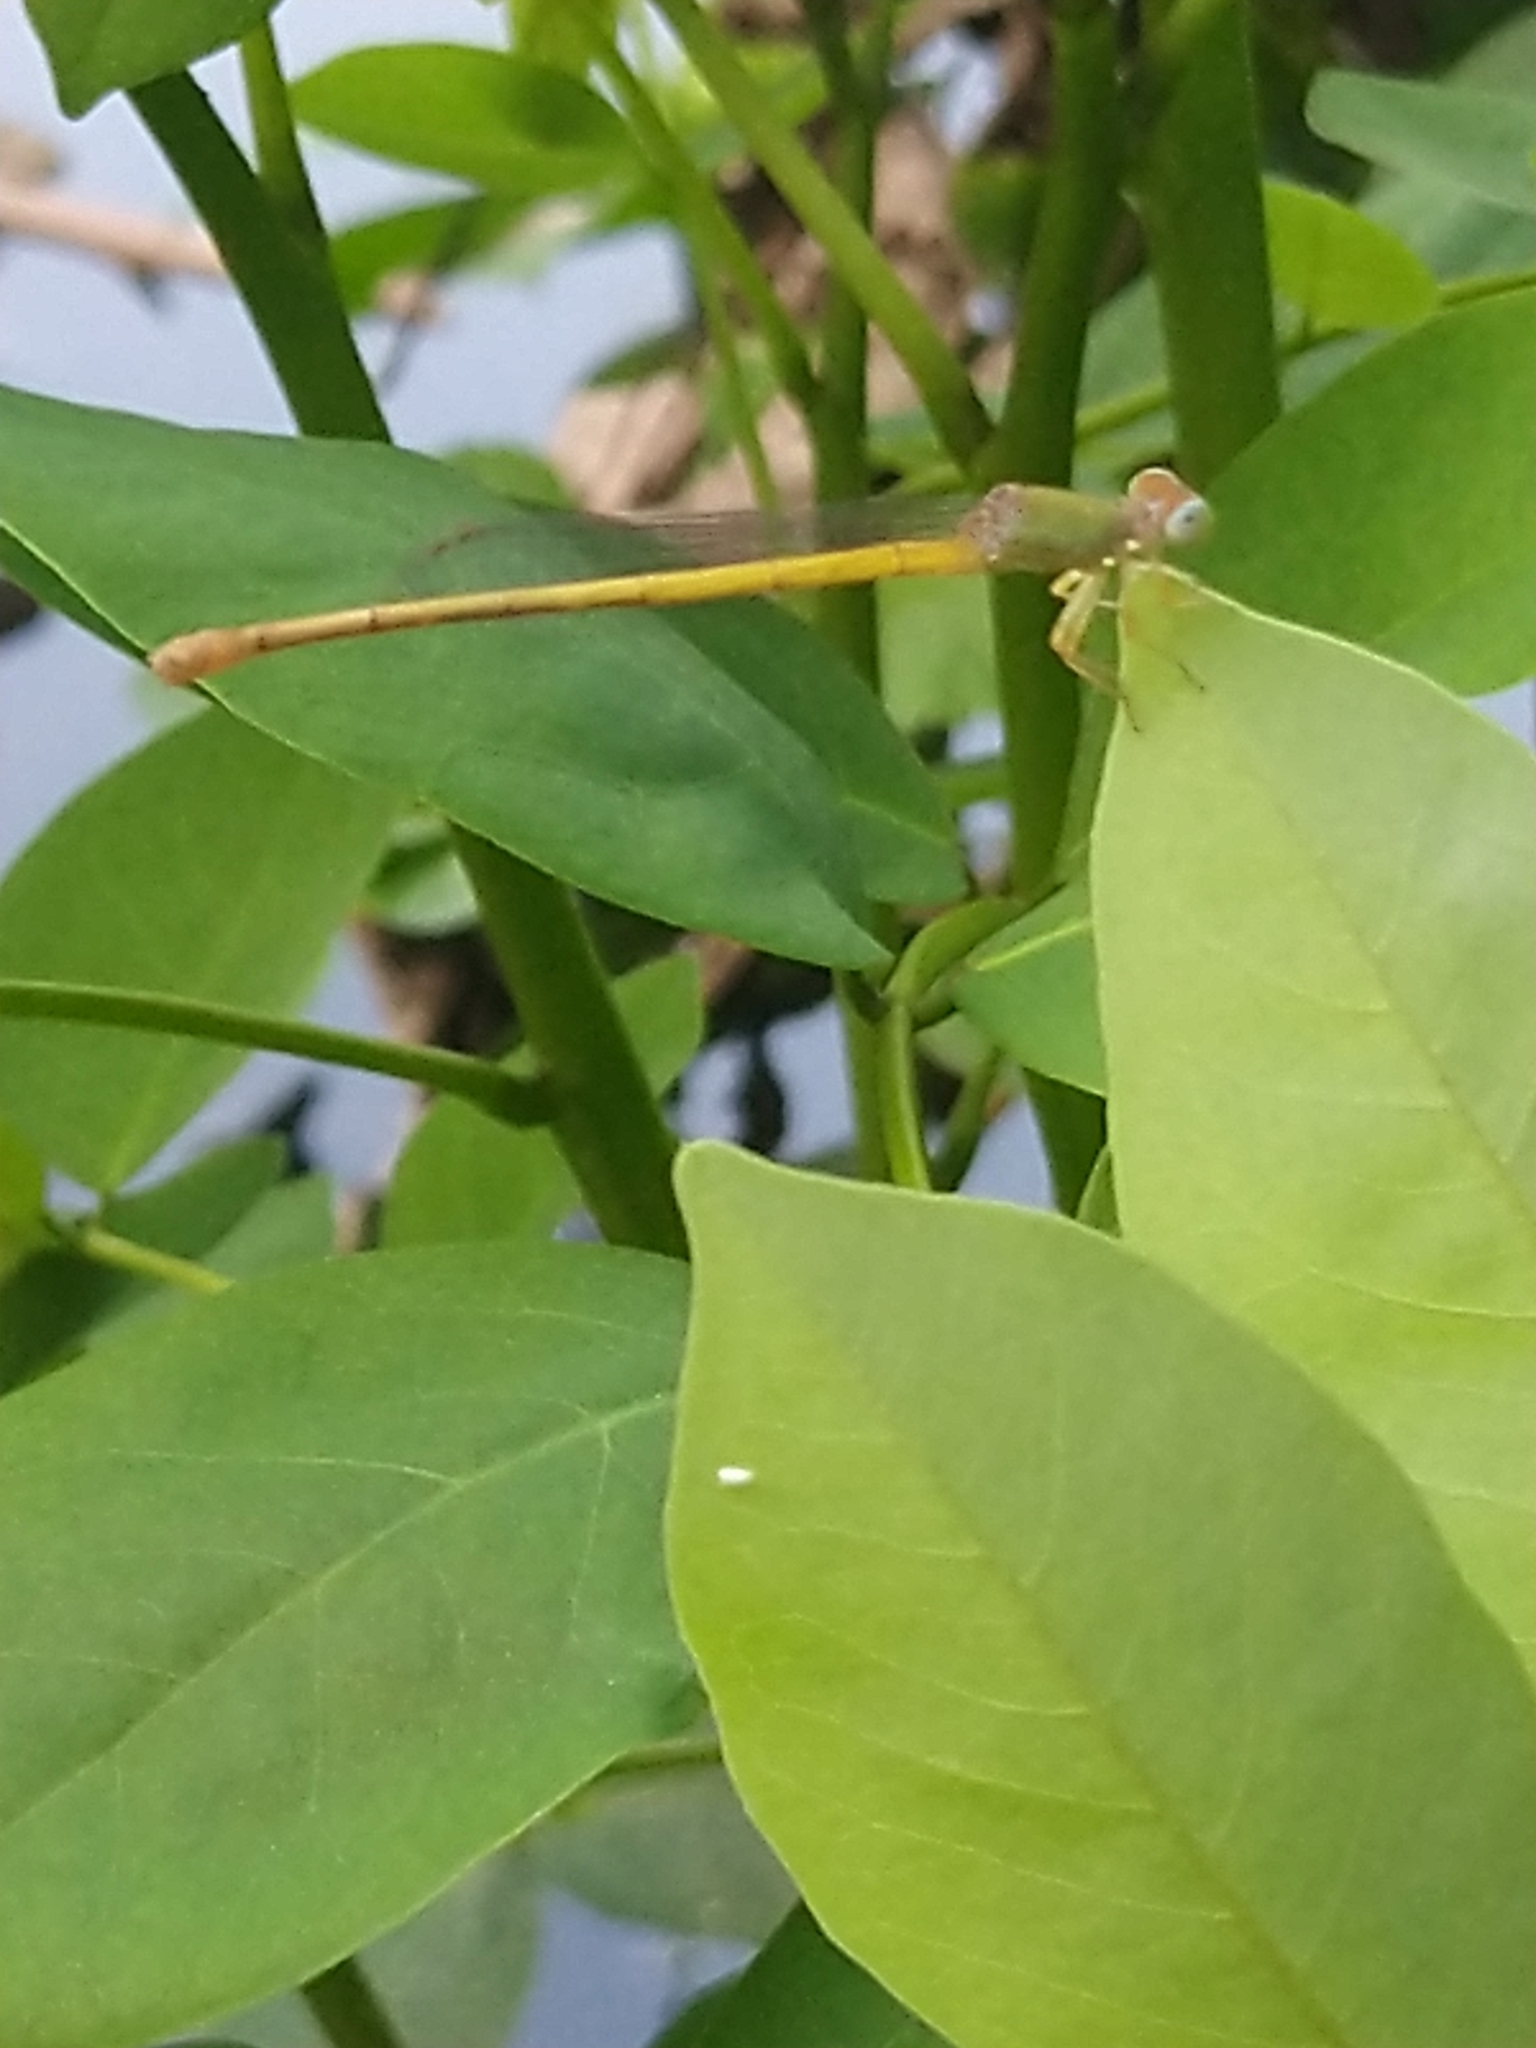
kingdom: Animalia
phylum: Arthropoda
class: Insecta
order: Odonata
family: Coenagrionidae
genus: Ceriagrion
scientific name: Ceriagrion coromandelianum
